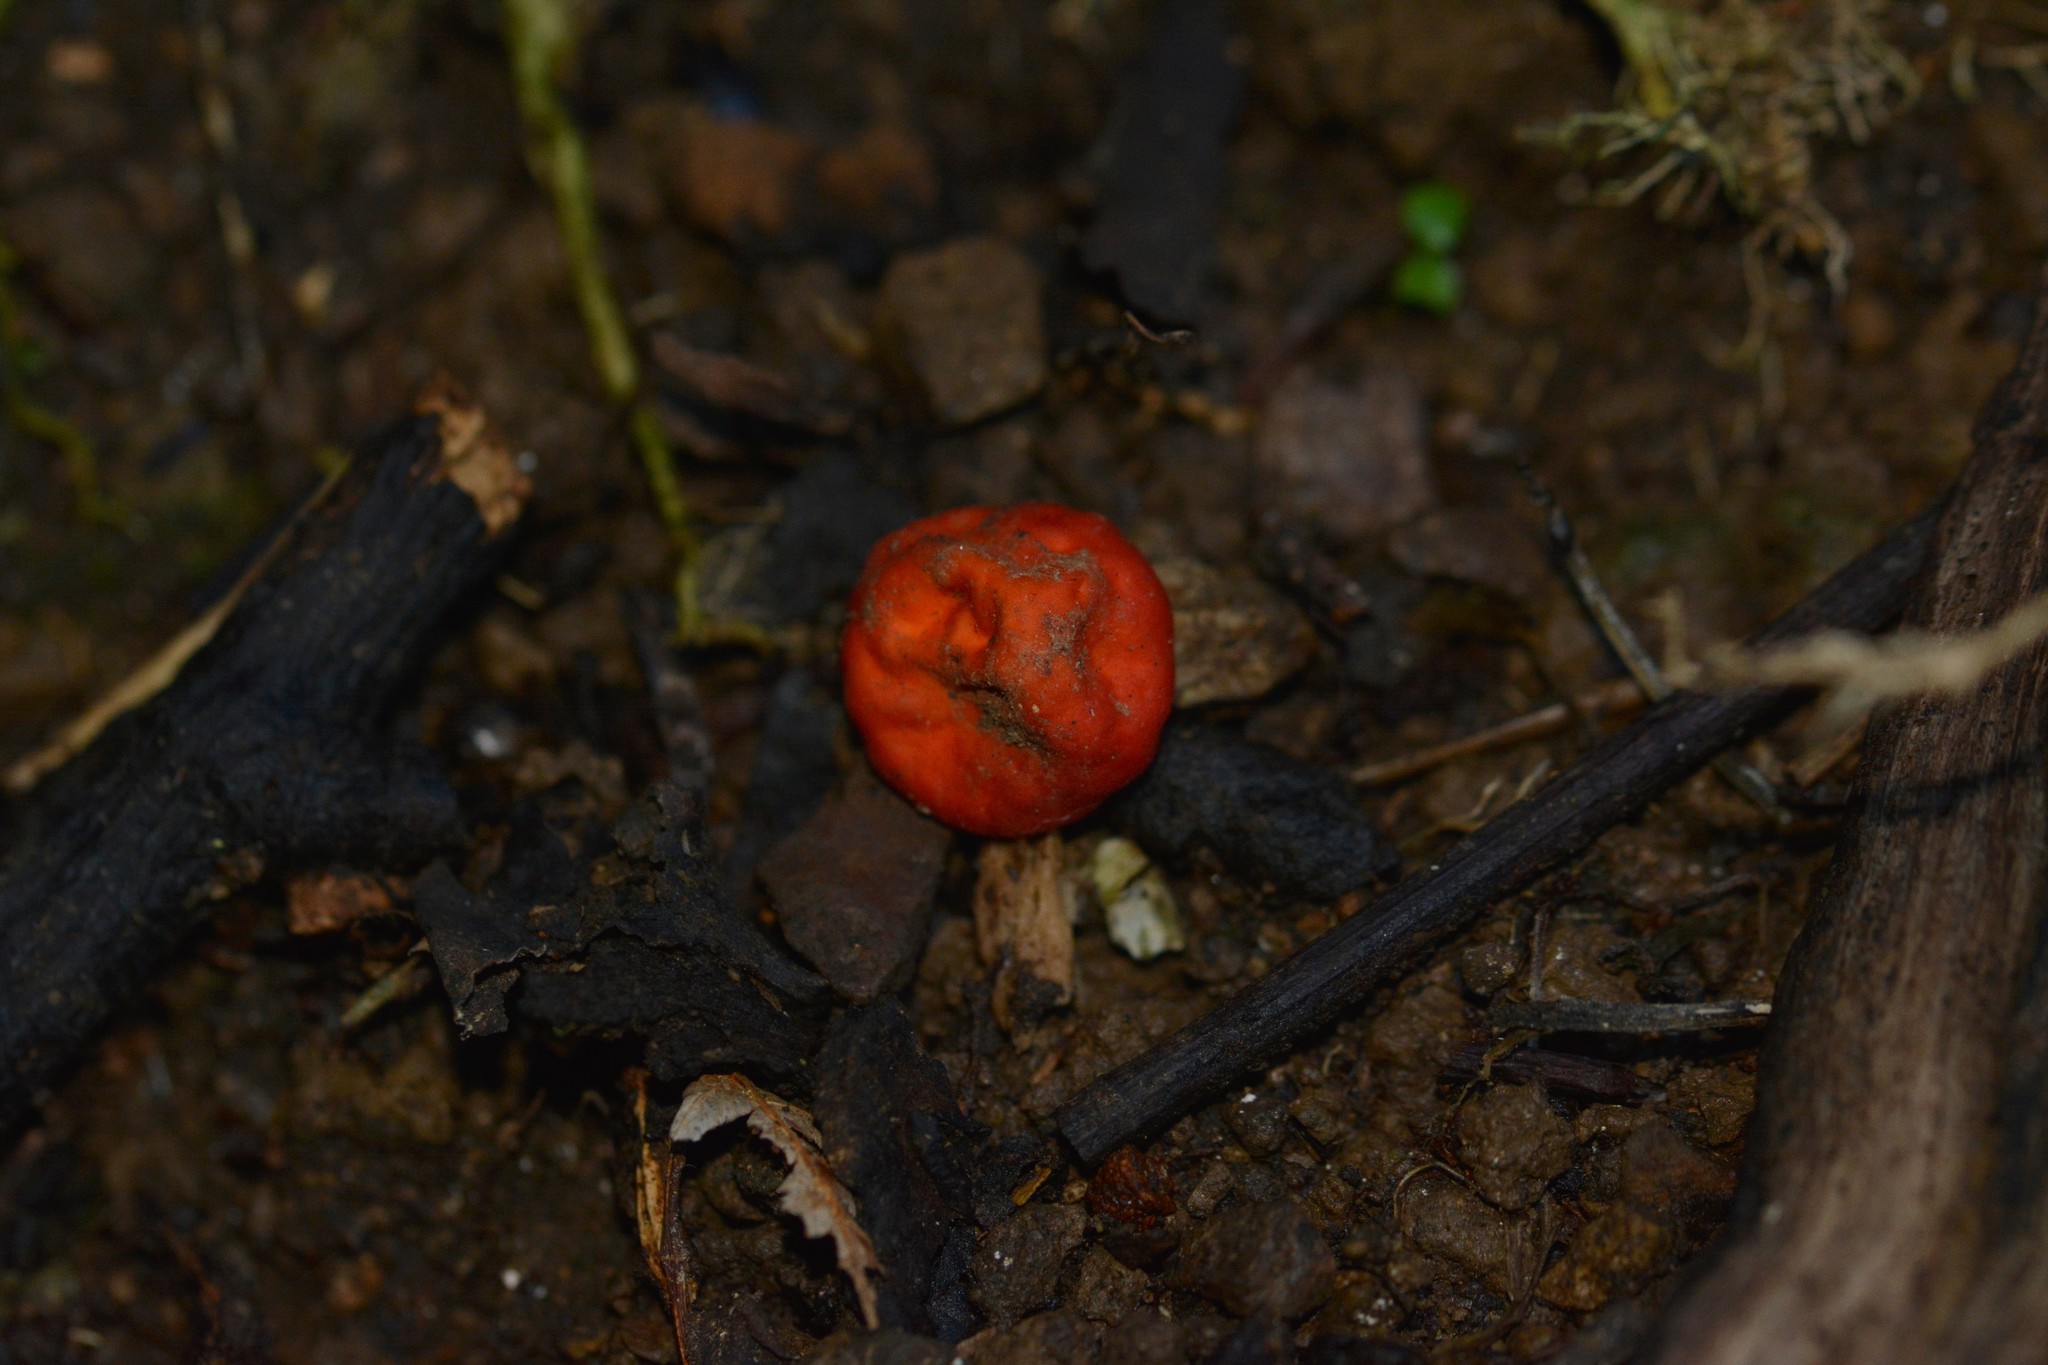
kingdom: Fungi
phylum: Ascomycota
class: Pezizomycetes
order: Pezizales
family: Pyronemataceae
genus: Paurocotylis
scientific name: Paurocotylis pila
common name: Scarlet berry truffle
